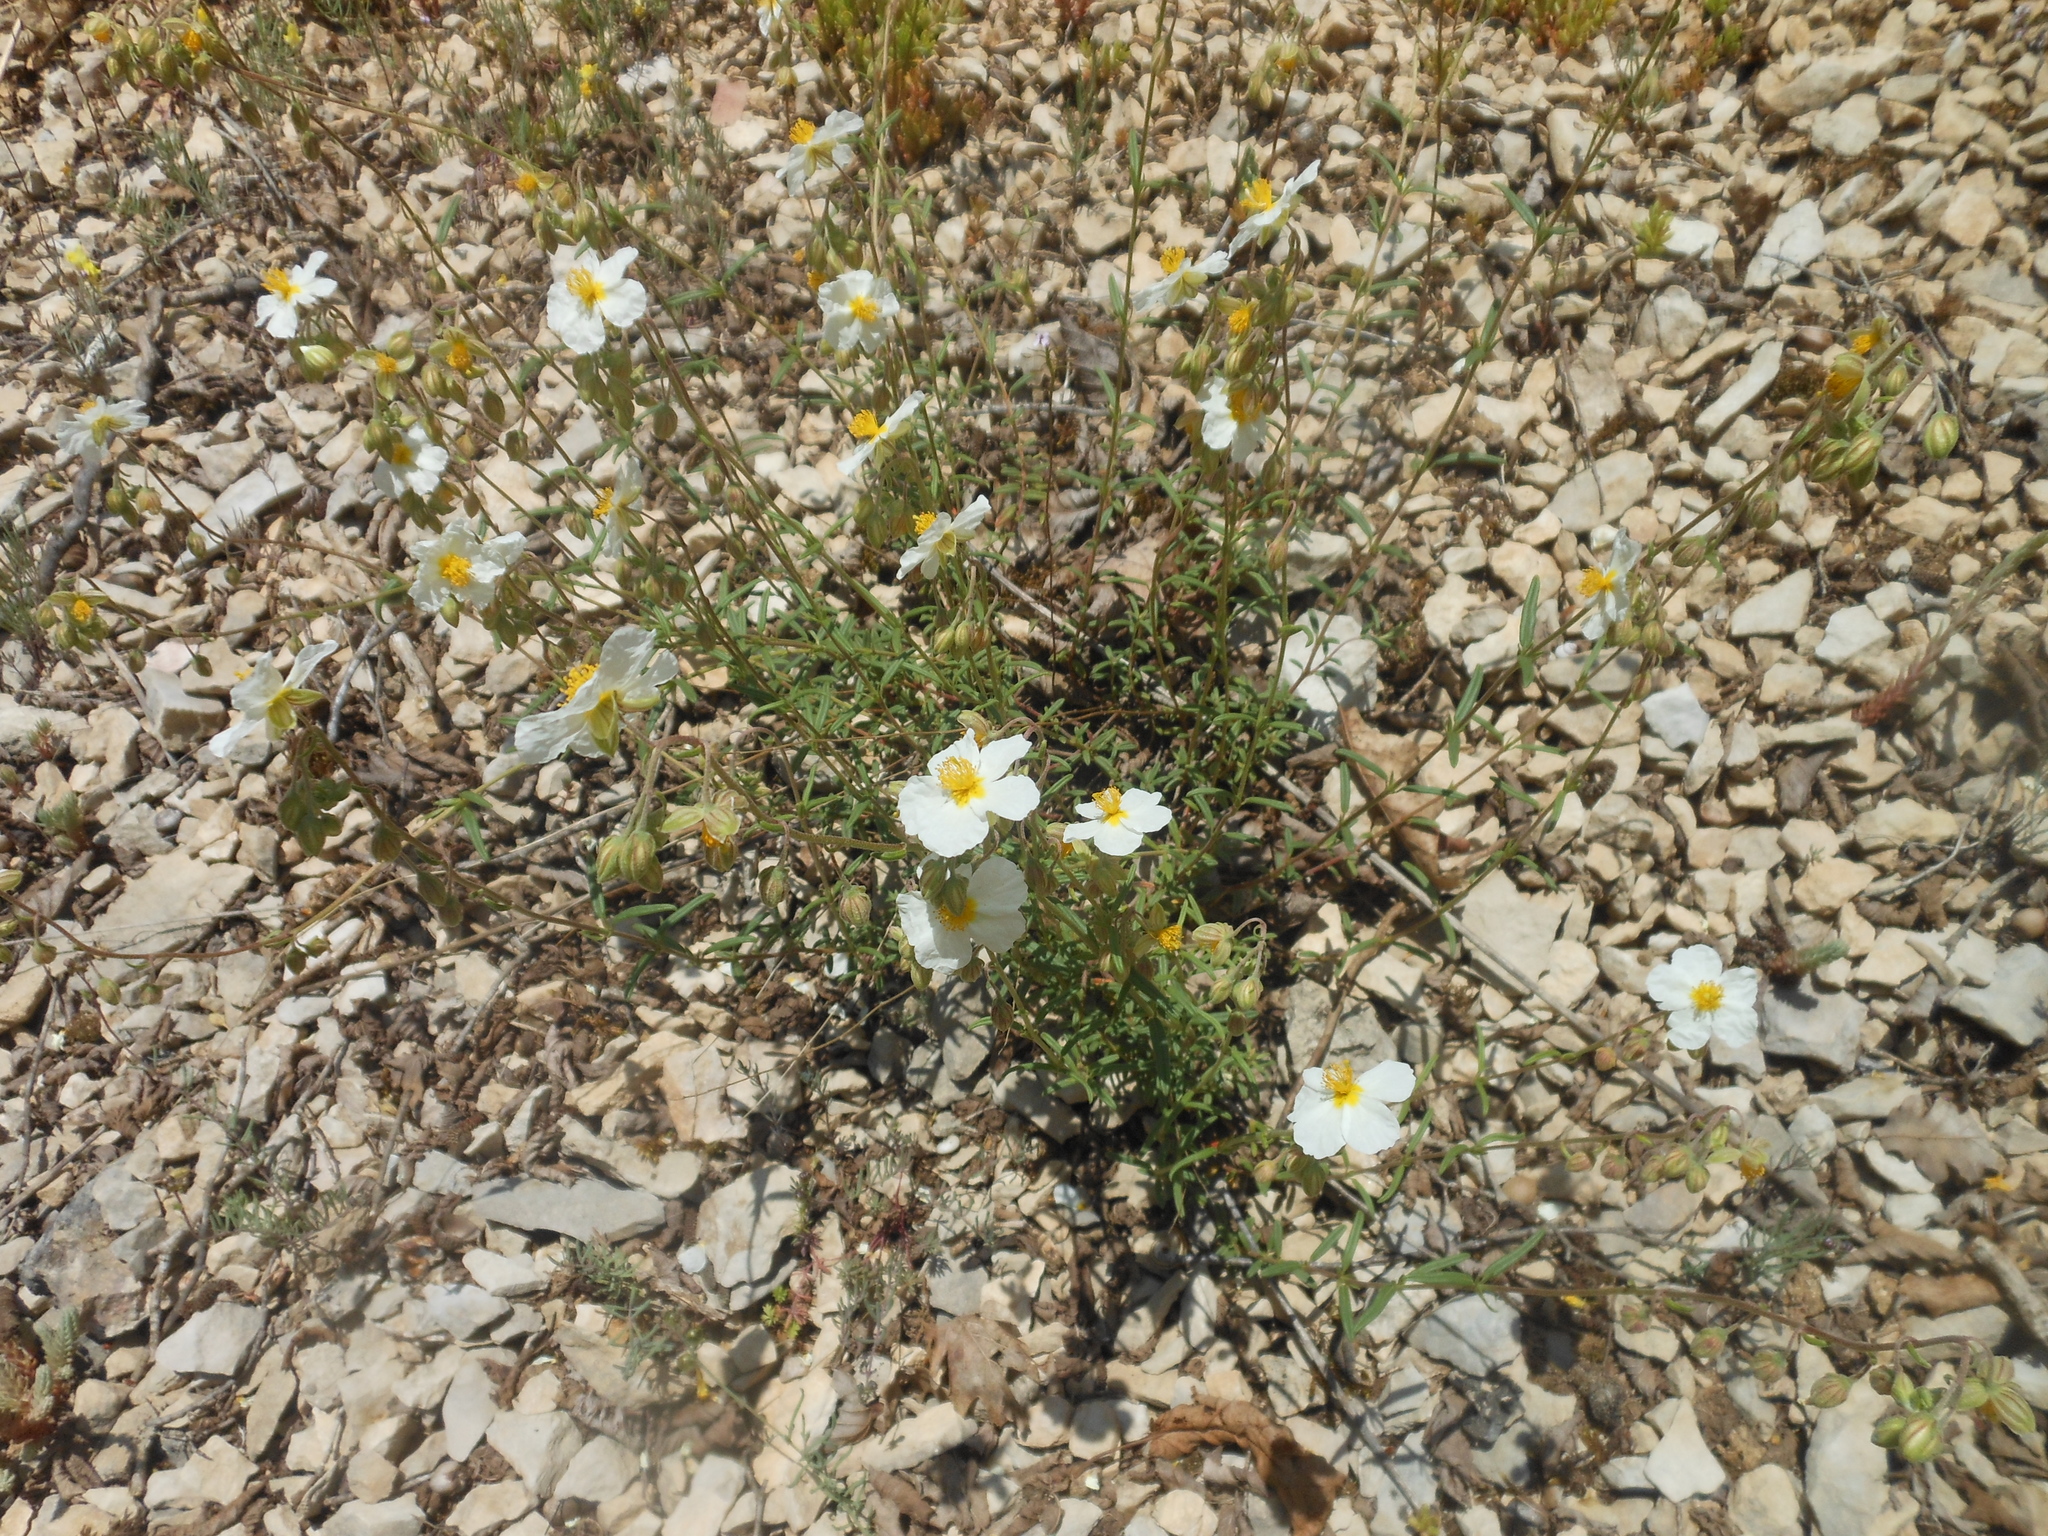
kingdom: Plantae
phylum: Tracheophyta
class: Magnoliopsida
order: Malvales
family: Cistaceae
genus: Helianthemum
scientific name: Helianthemum apenninum
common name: White rock-rose
